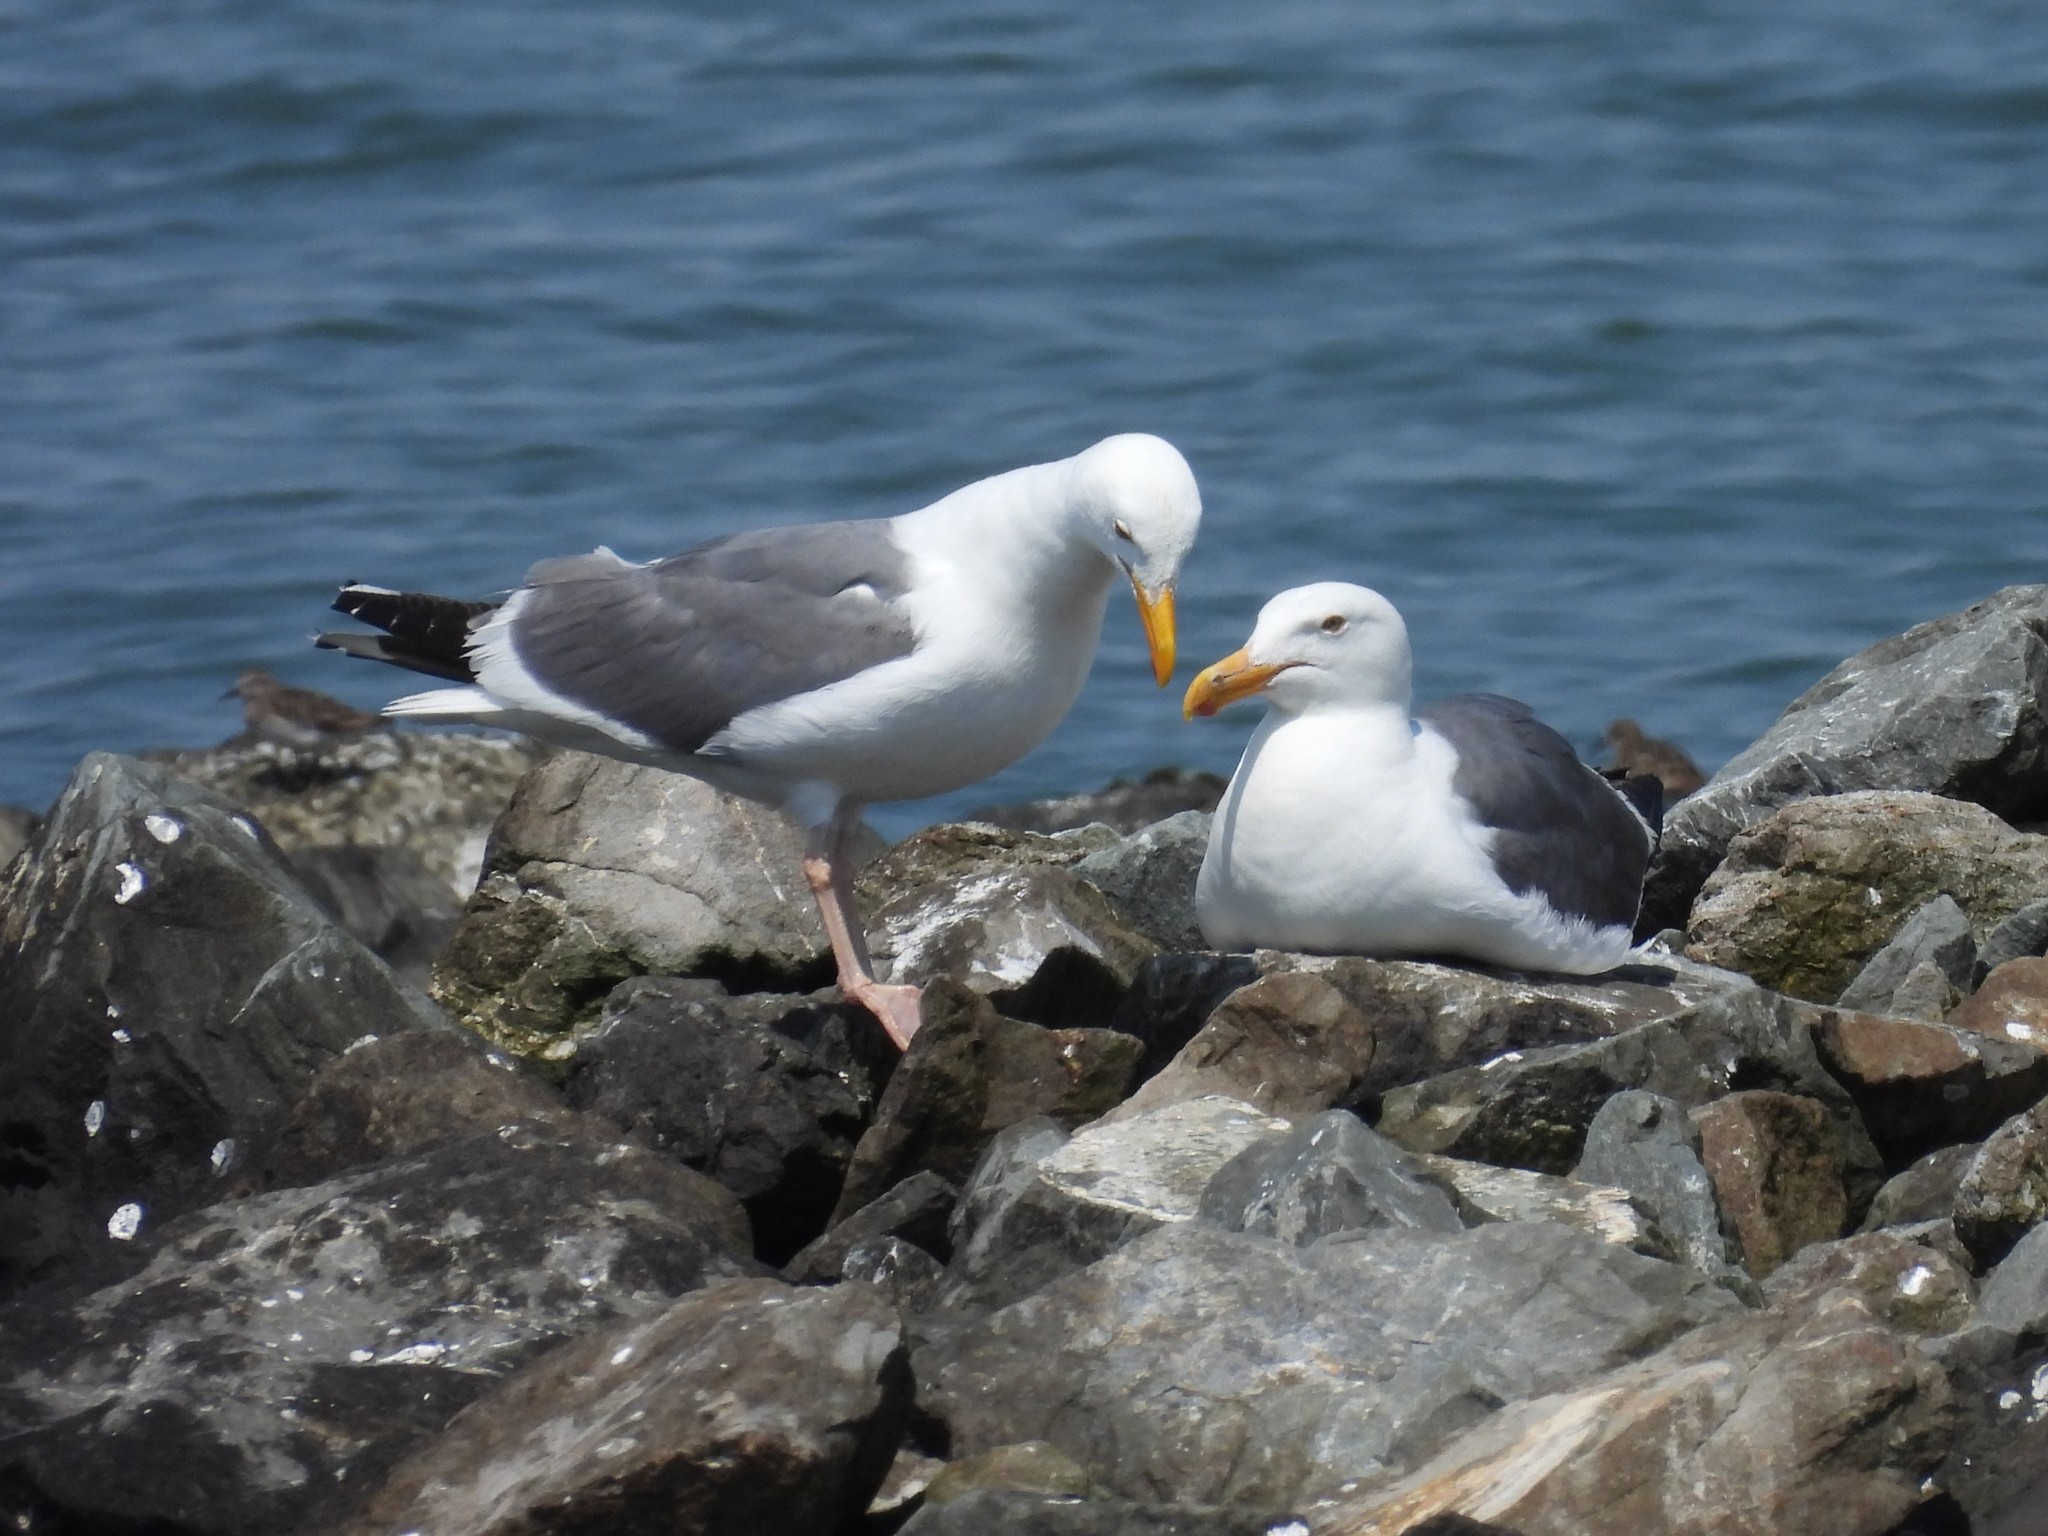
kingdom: Animalia
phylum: Chordata
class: Aves
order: Charadriiformes
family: Laridae
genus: Larus
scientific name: Larus occidentalis
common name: Western gull
